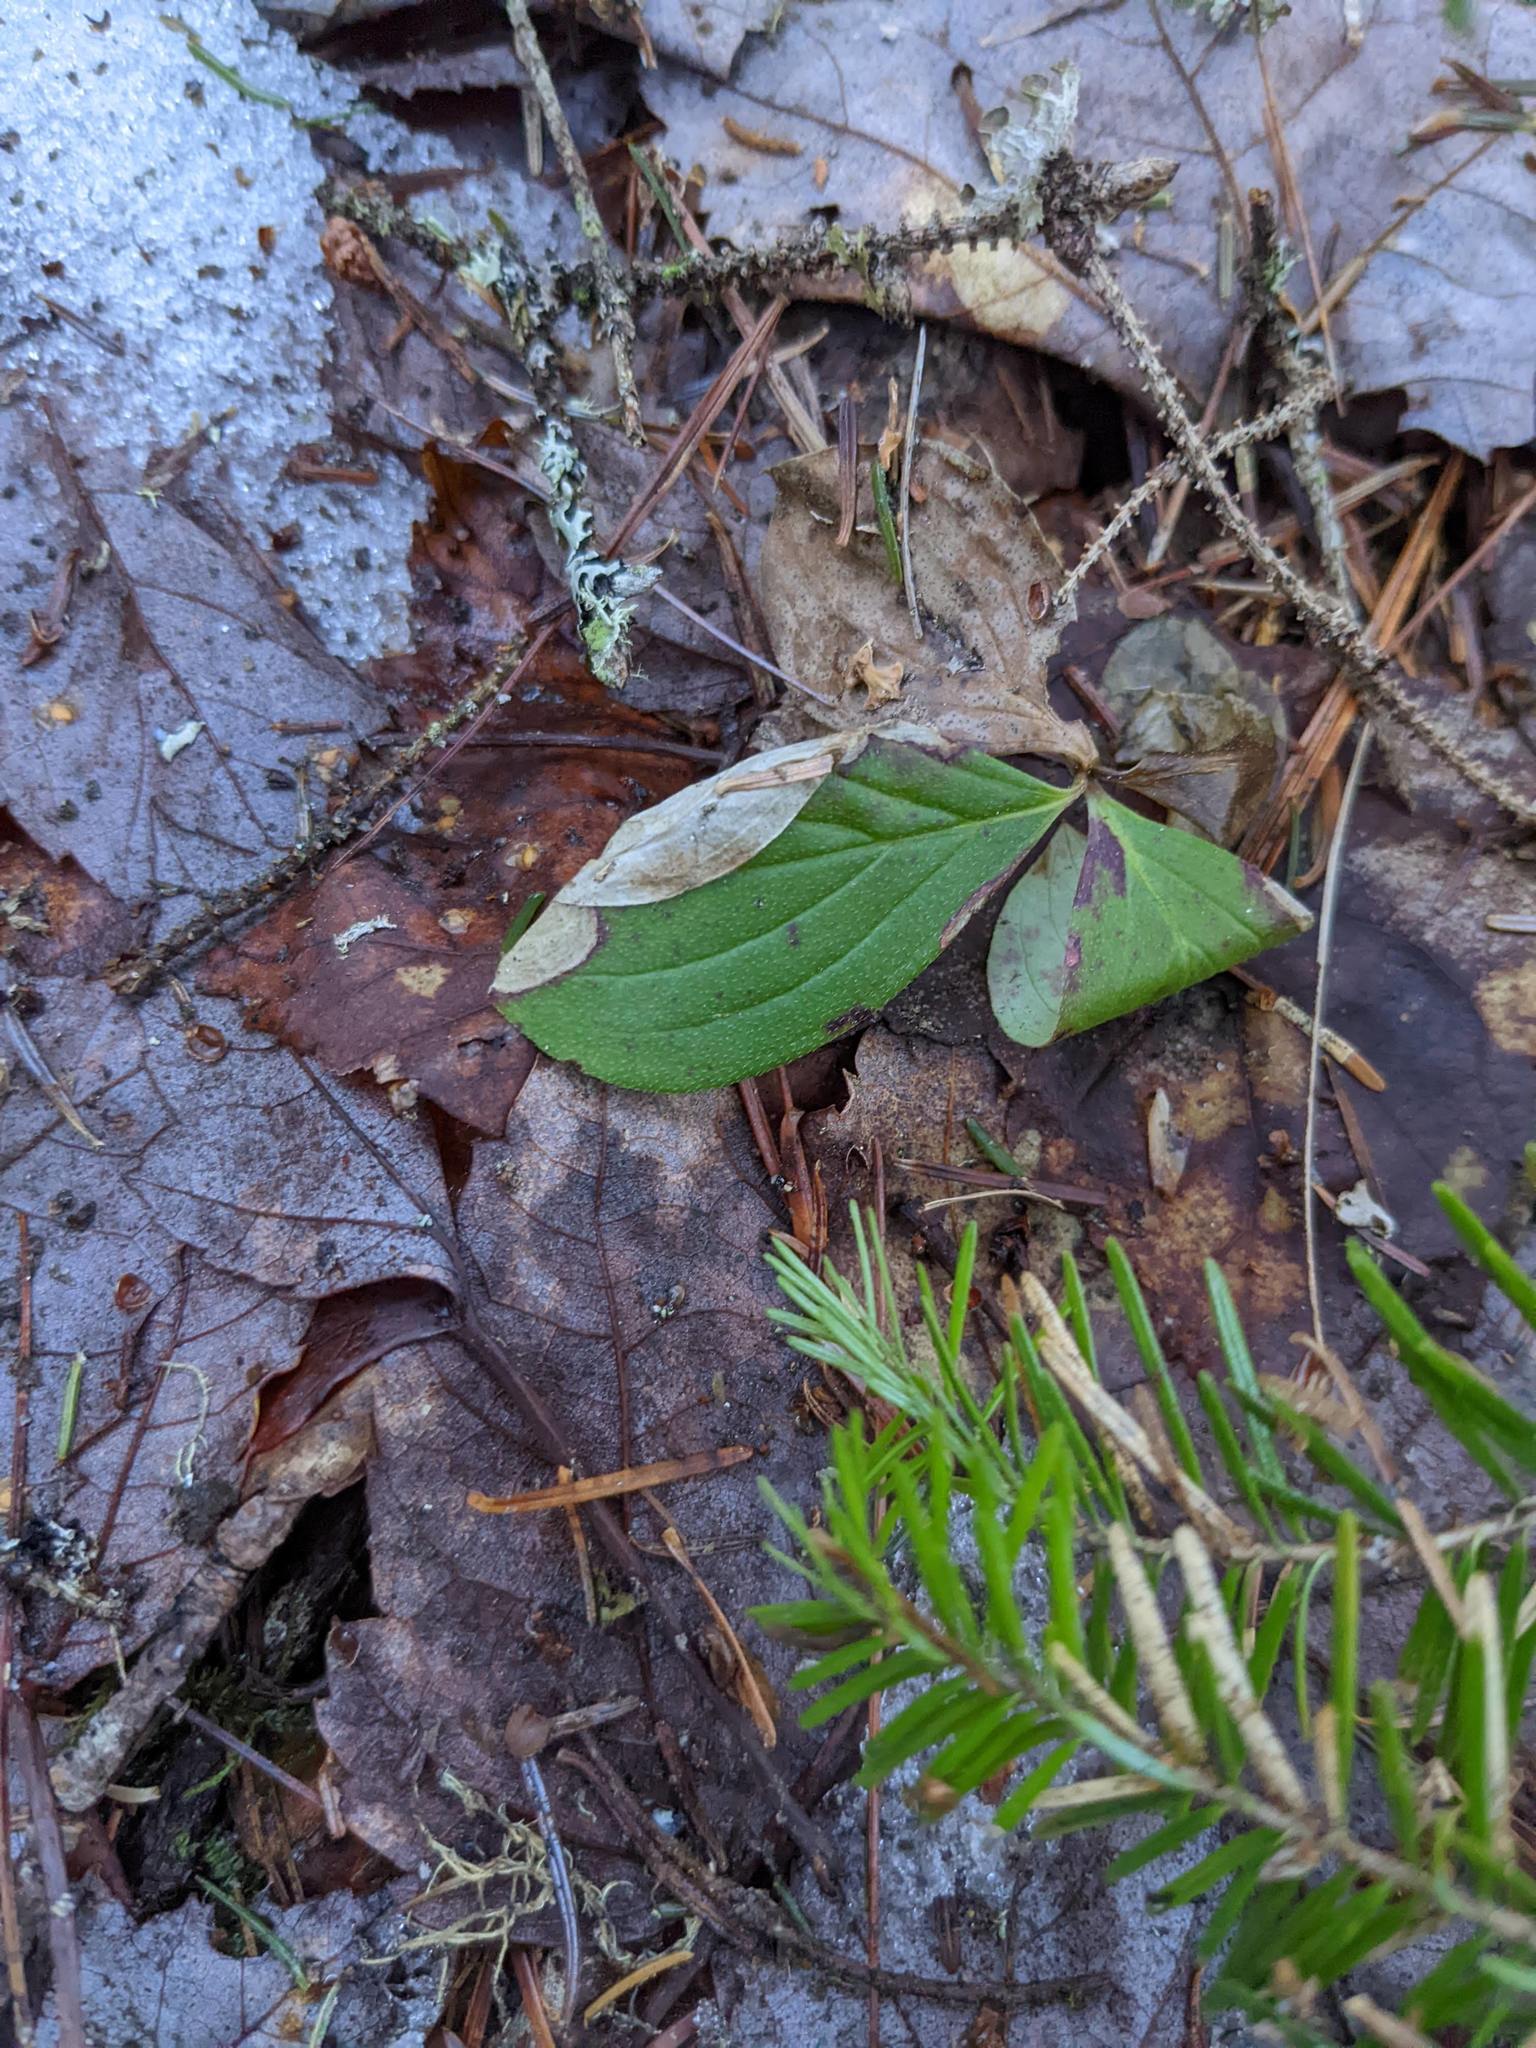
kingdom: Plantae
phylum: Tracheophyta
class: Magnoliopsida
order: Cornales
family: Cornaceae
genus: Cornus
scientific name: Cornus canadensis
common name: Creeping dogwood
